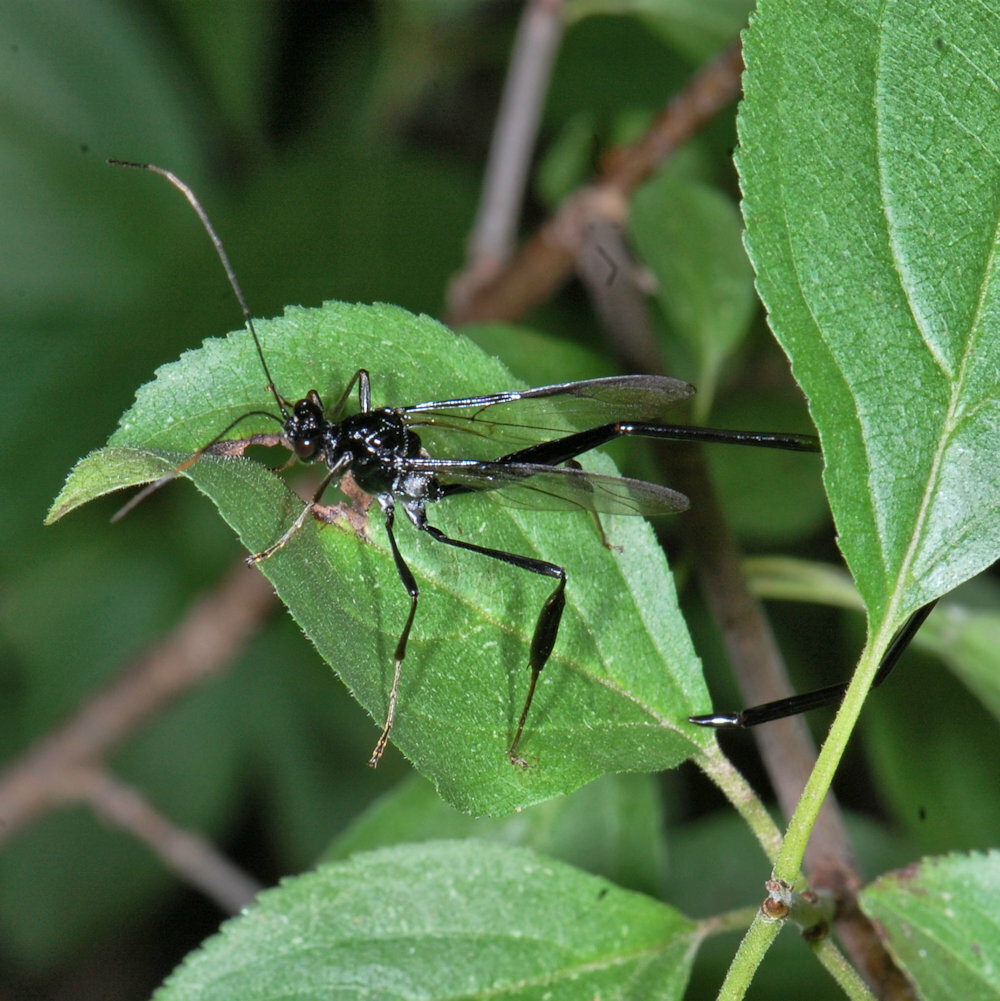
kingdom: Animalia
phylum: Arthropoda
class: Insecta
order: Hymenoptera
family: Pelecinidae
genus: Pelecinus
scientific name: Pelecinus polyturator
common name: American pelecinid wasp
